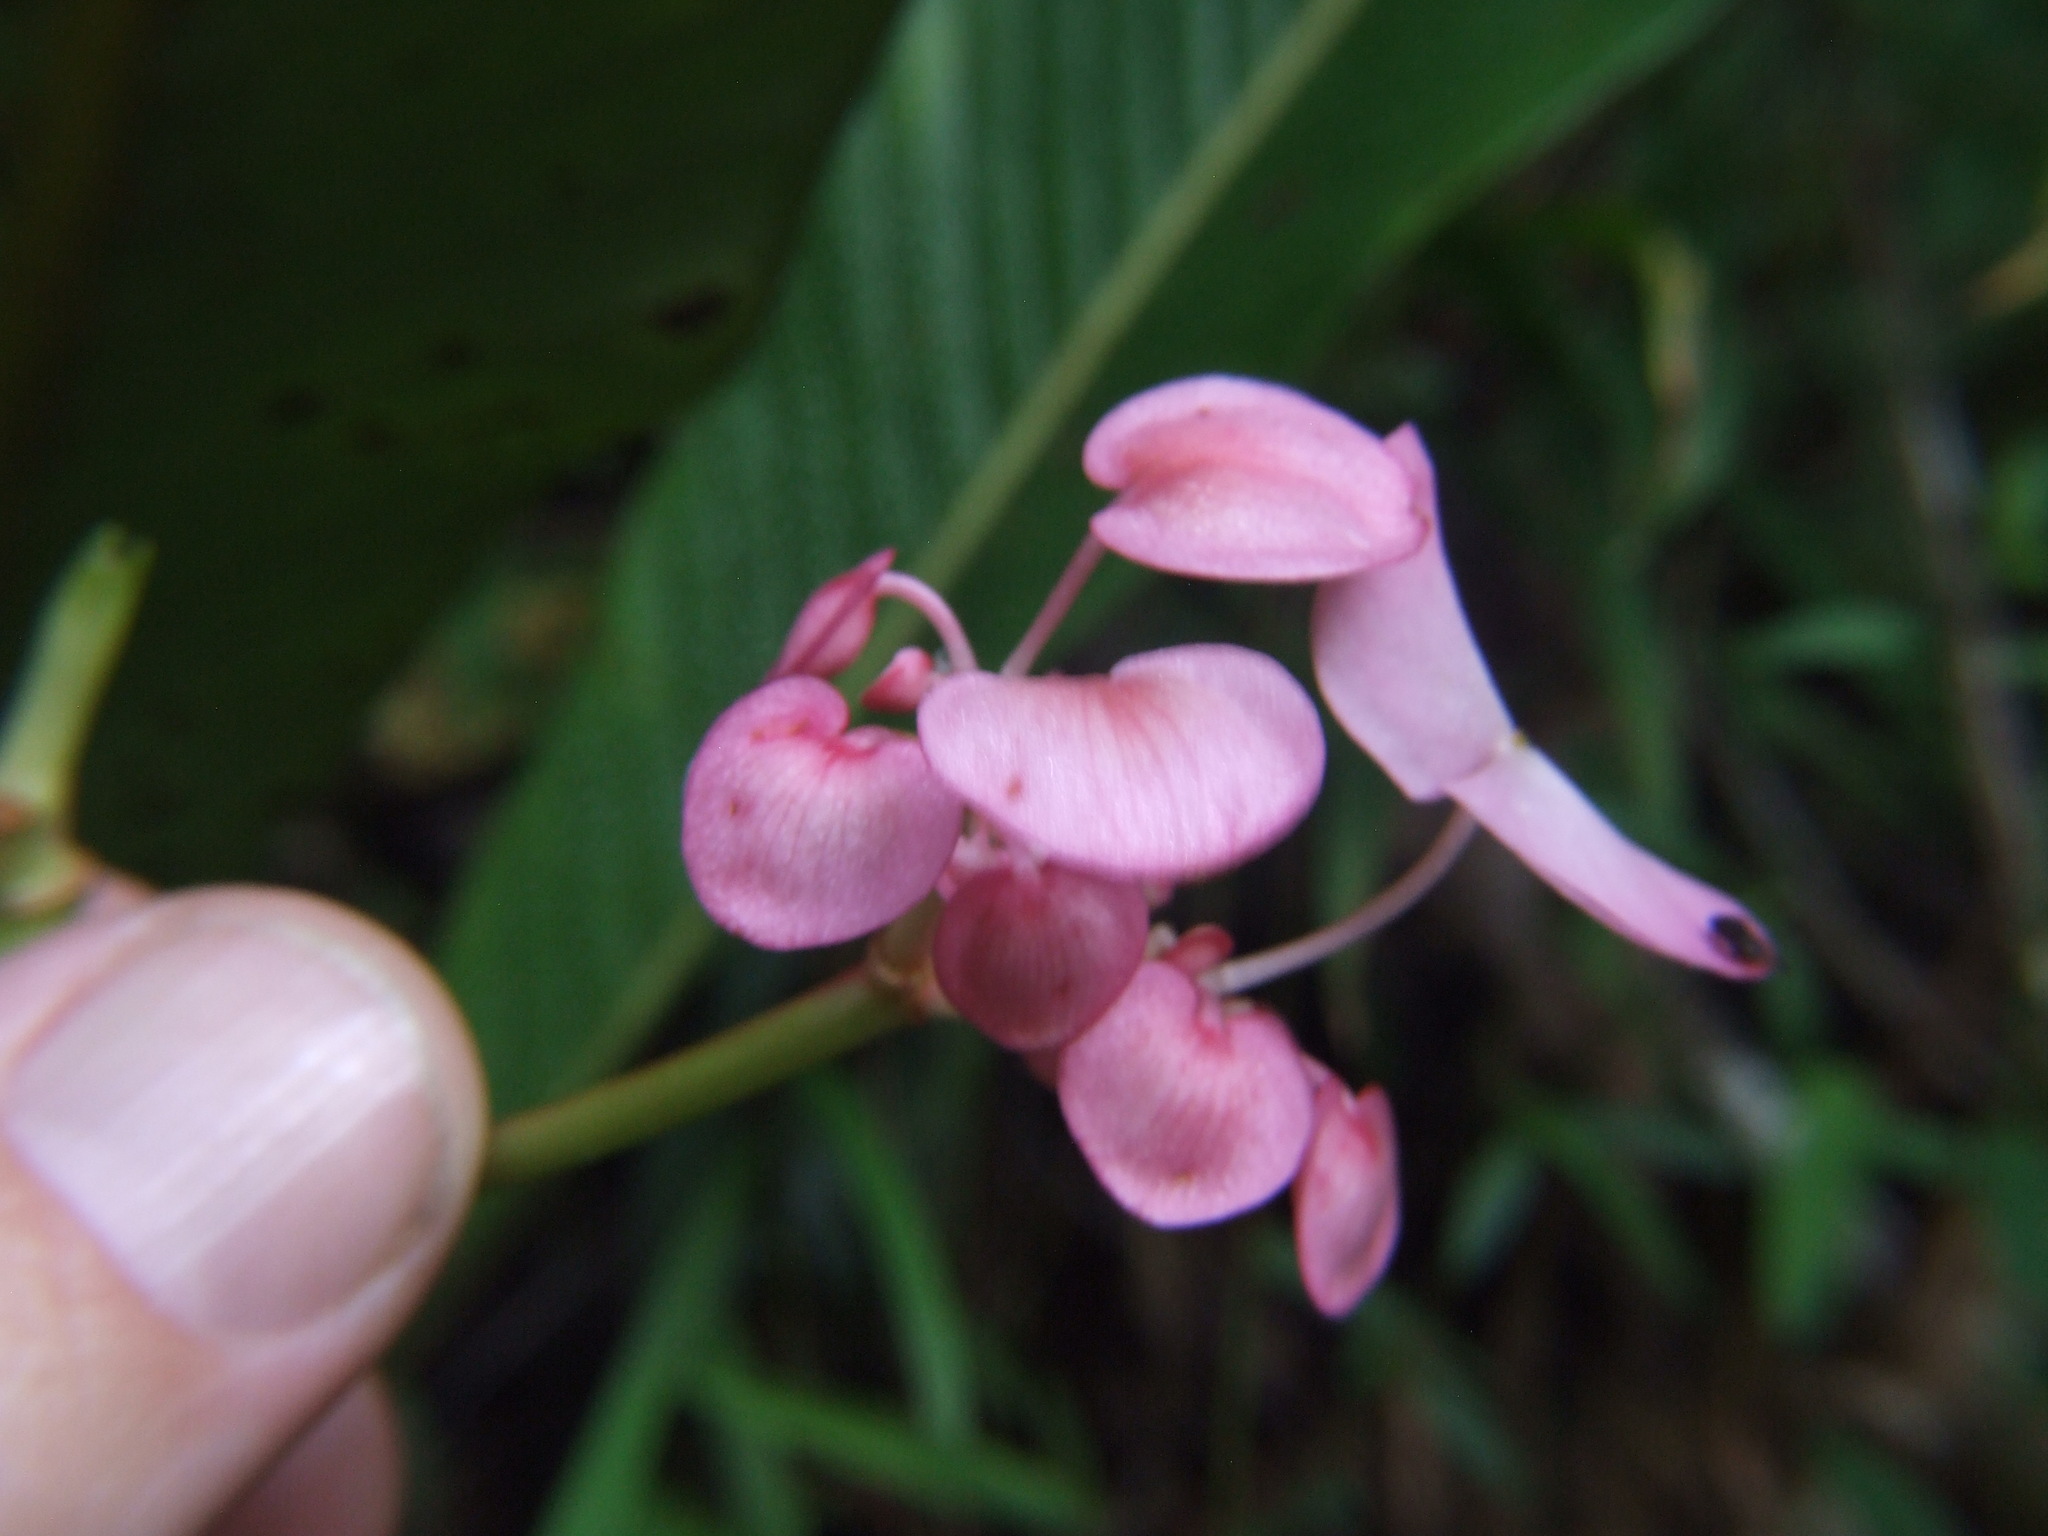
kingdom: Plantae
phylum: Tracheophyta
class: Magnoliopsida
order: Cucurbitales
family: Begoniaceae
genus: Begonia
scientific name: Begonia bracteosa
